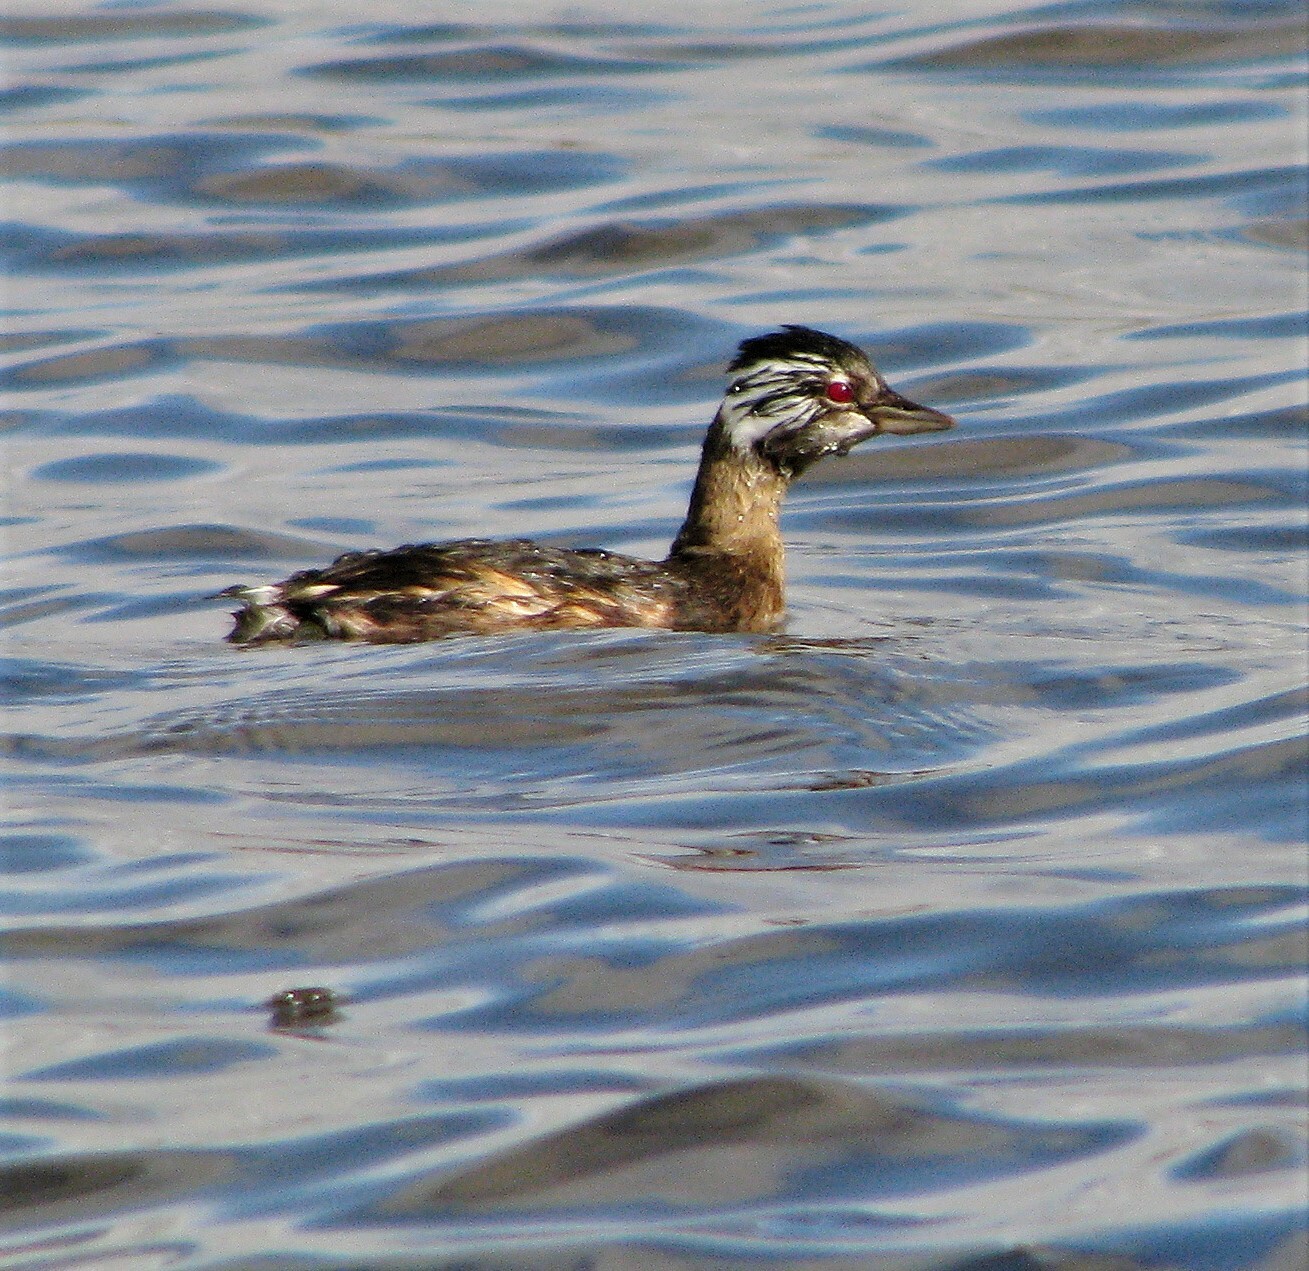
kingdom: Animalia
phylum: Chordata
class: Aves
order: Podicipediformes
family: Podicipedidae
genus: Rollandia
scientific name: Rollandia rolland
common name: White-tufted grebe
